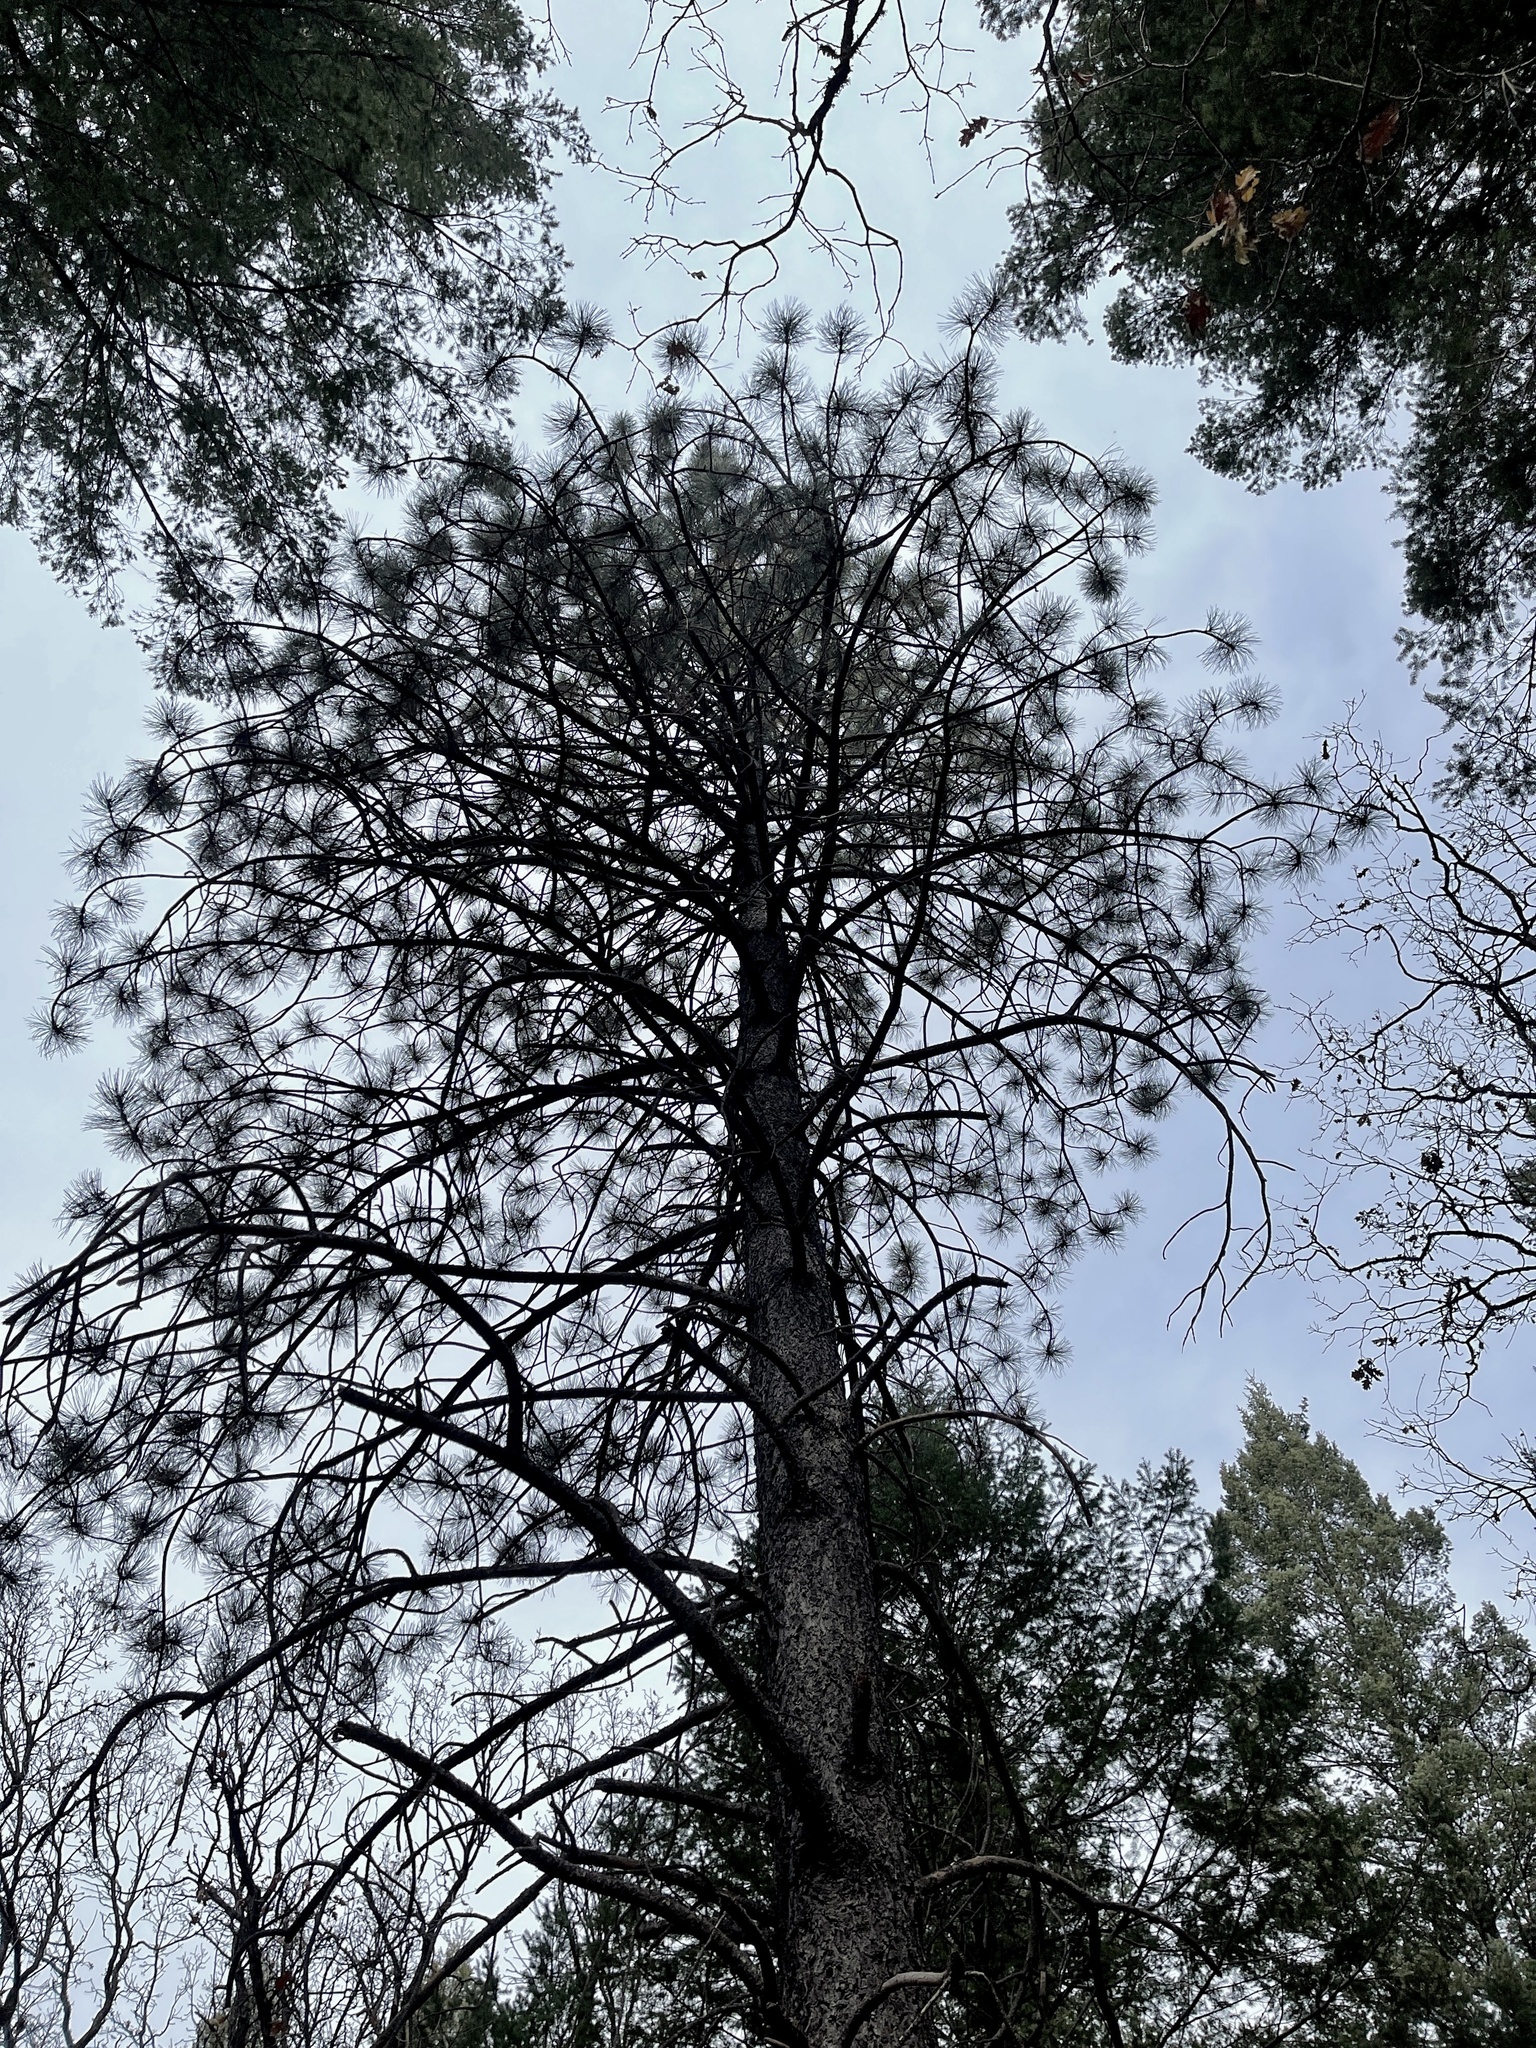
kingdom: Plantae
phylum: Tracheophyta
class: Pinopsida
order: Pinales
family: Pinaceae
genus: Pinus
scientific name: Pinus ponderosa
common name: Western yellow-pine
